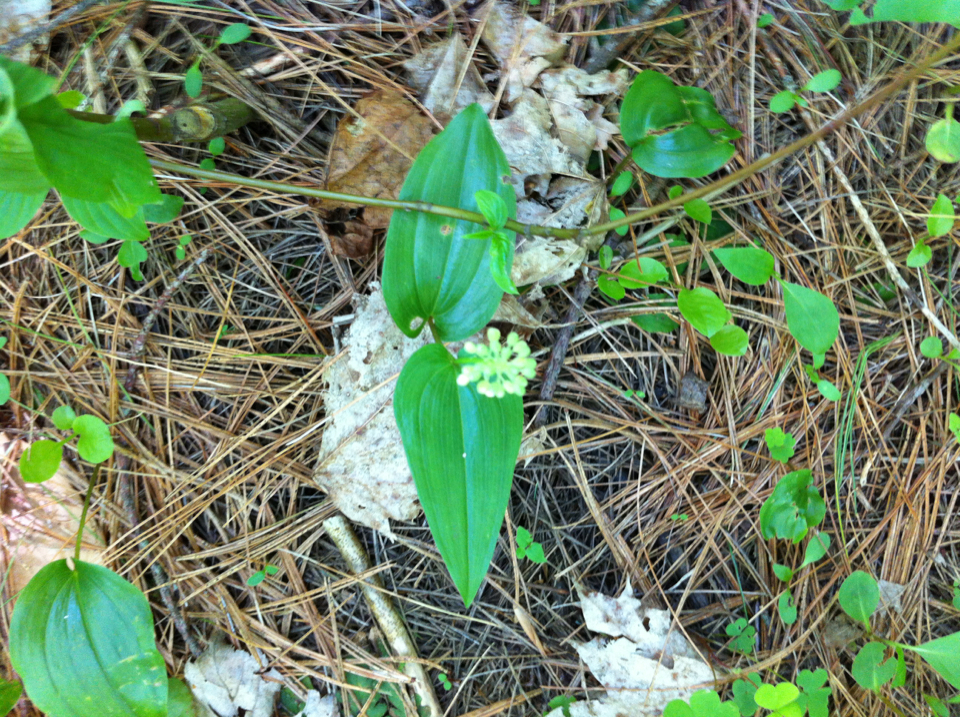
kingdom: Plantae
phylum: Tracheophyta
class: Liliopsida
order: Asparagales
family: Asparagaceae
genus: Maianthemum
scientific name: Maianthemum canadense
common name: False lily-of-the-valley
